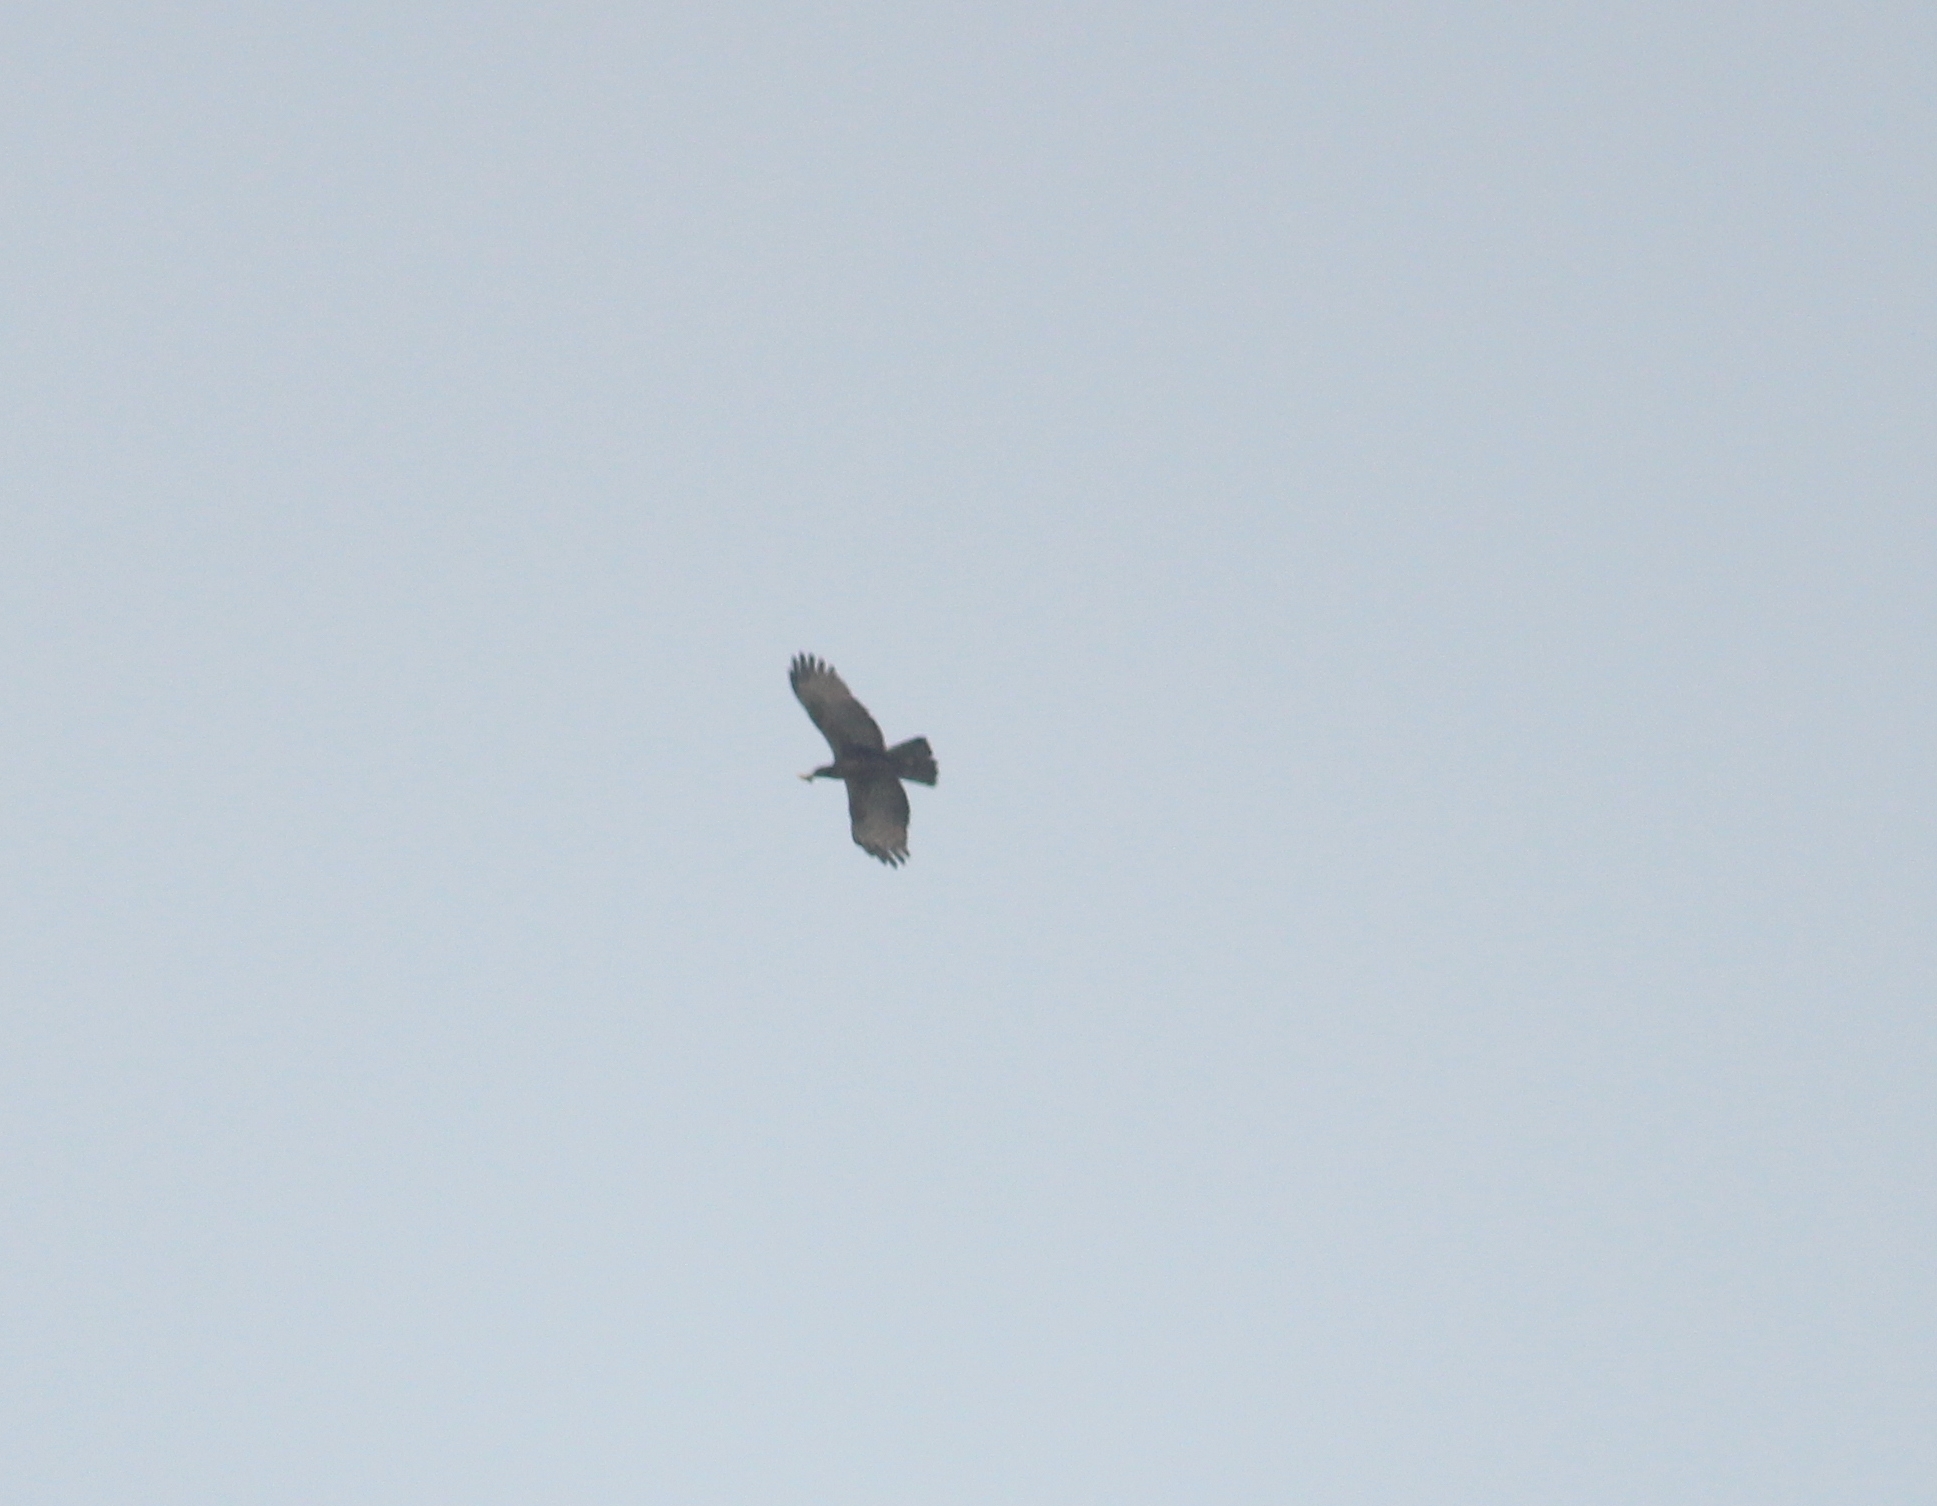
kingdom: Animalia
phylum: Chordata
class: Aves
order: Accipitriformes
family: Accipitridae
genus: Pernis
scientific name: Pernis ptilorhynchus
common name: Crested honey buzzard
